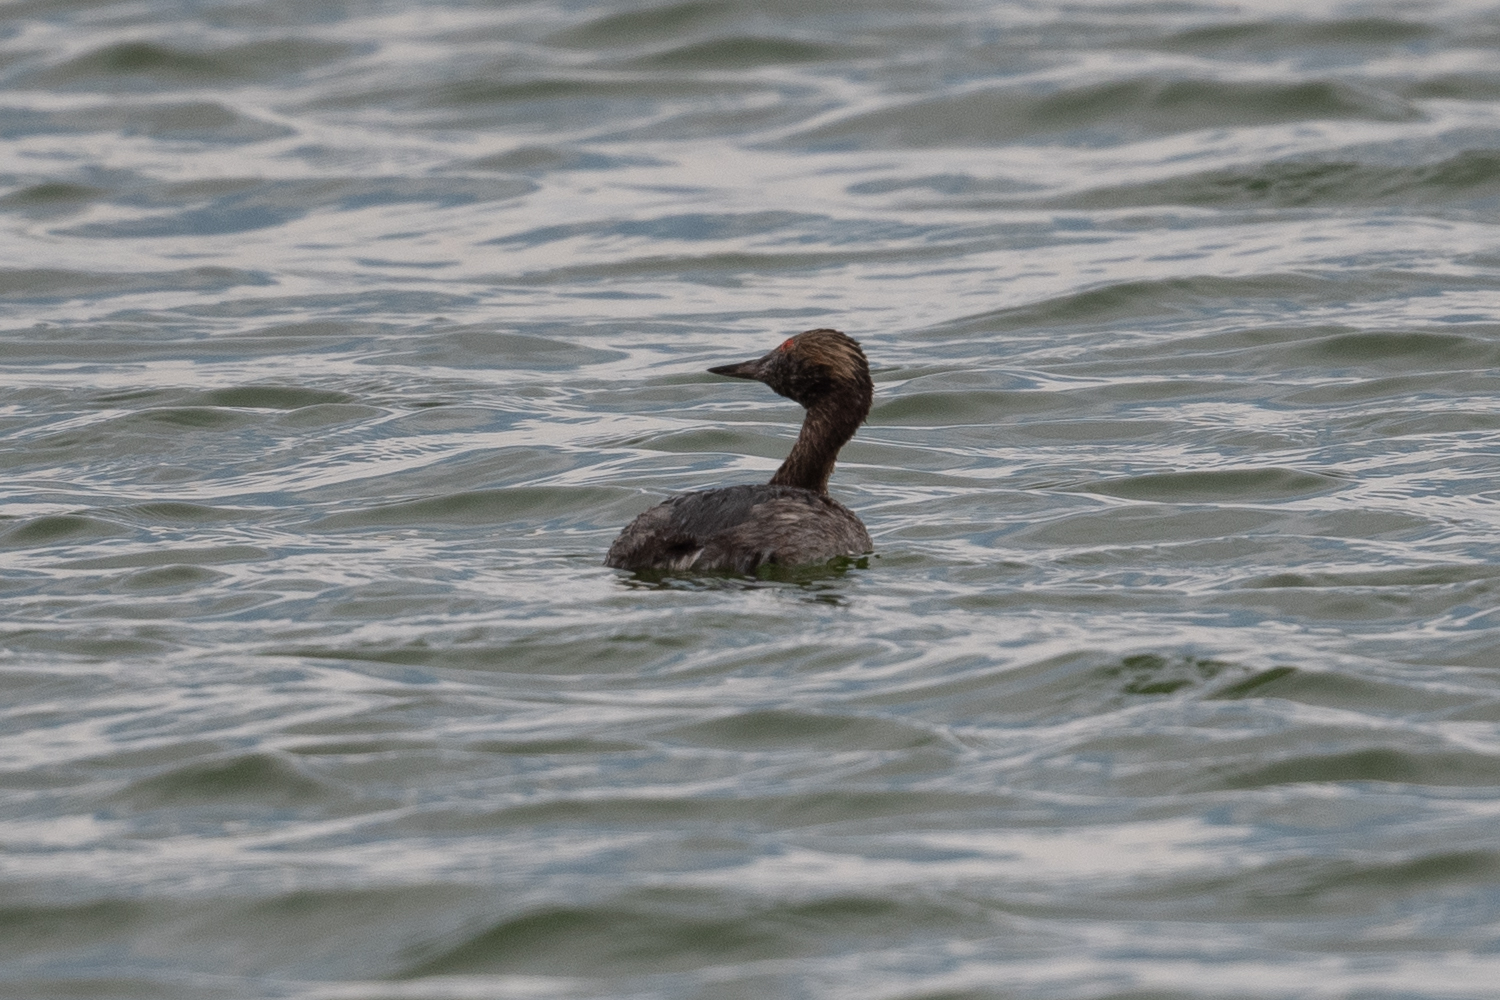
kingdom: Animalia
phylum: Chordata
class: Aves
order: Podicipediformes
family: Podicipedidae
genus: Podiceps
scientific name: Podiceps nigricollis
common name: Black-necked grebe
